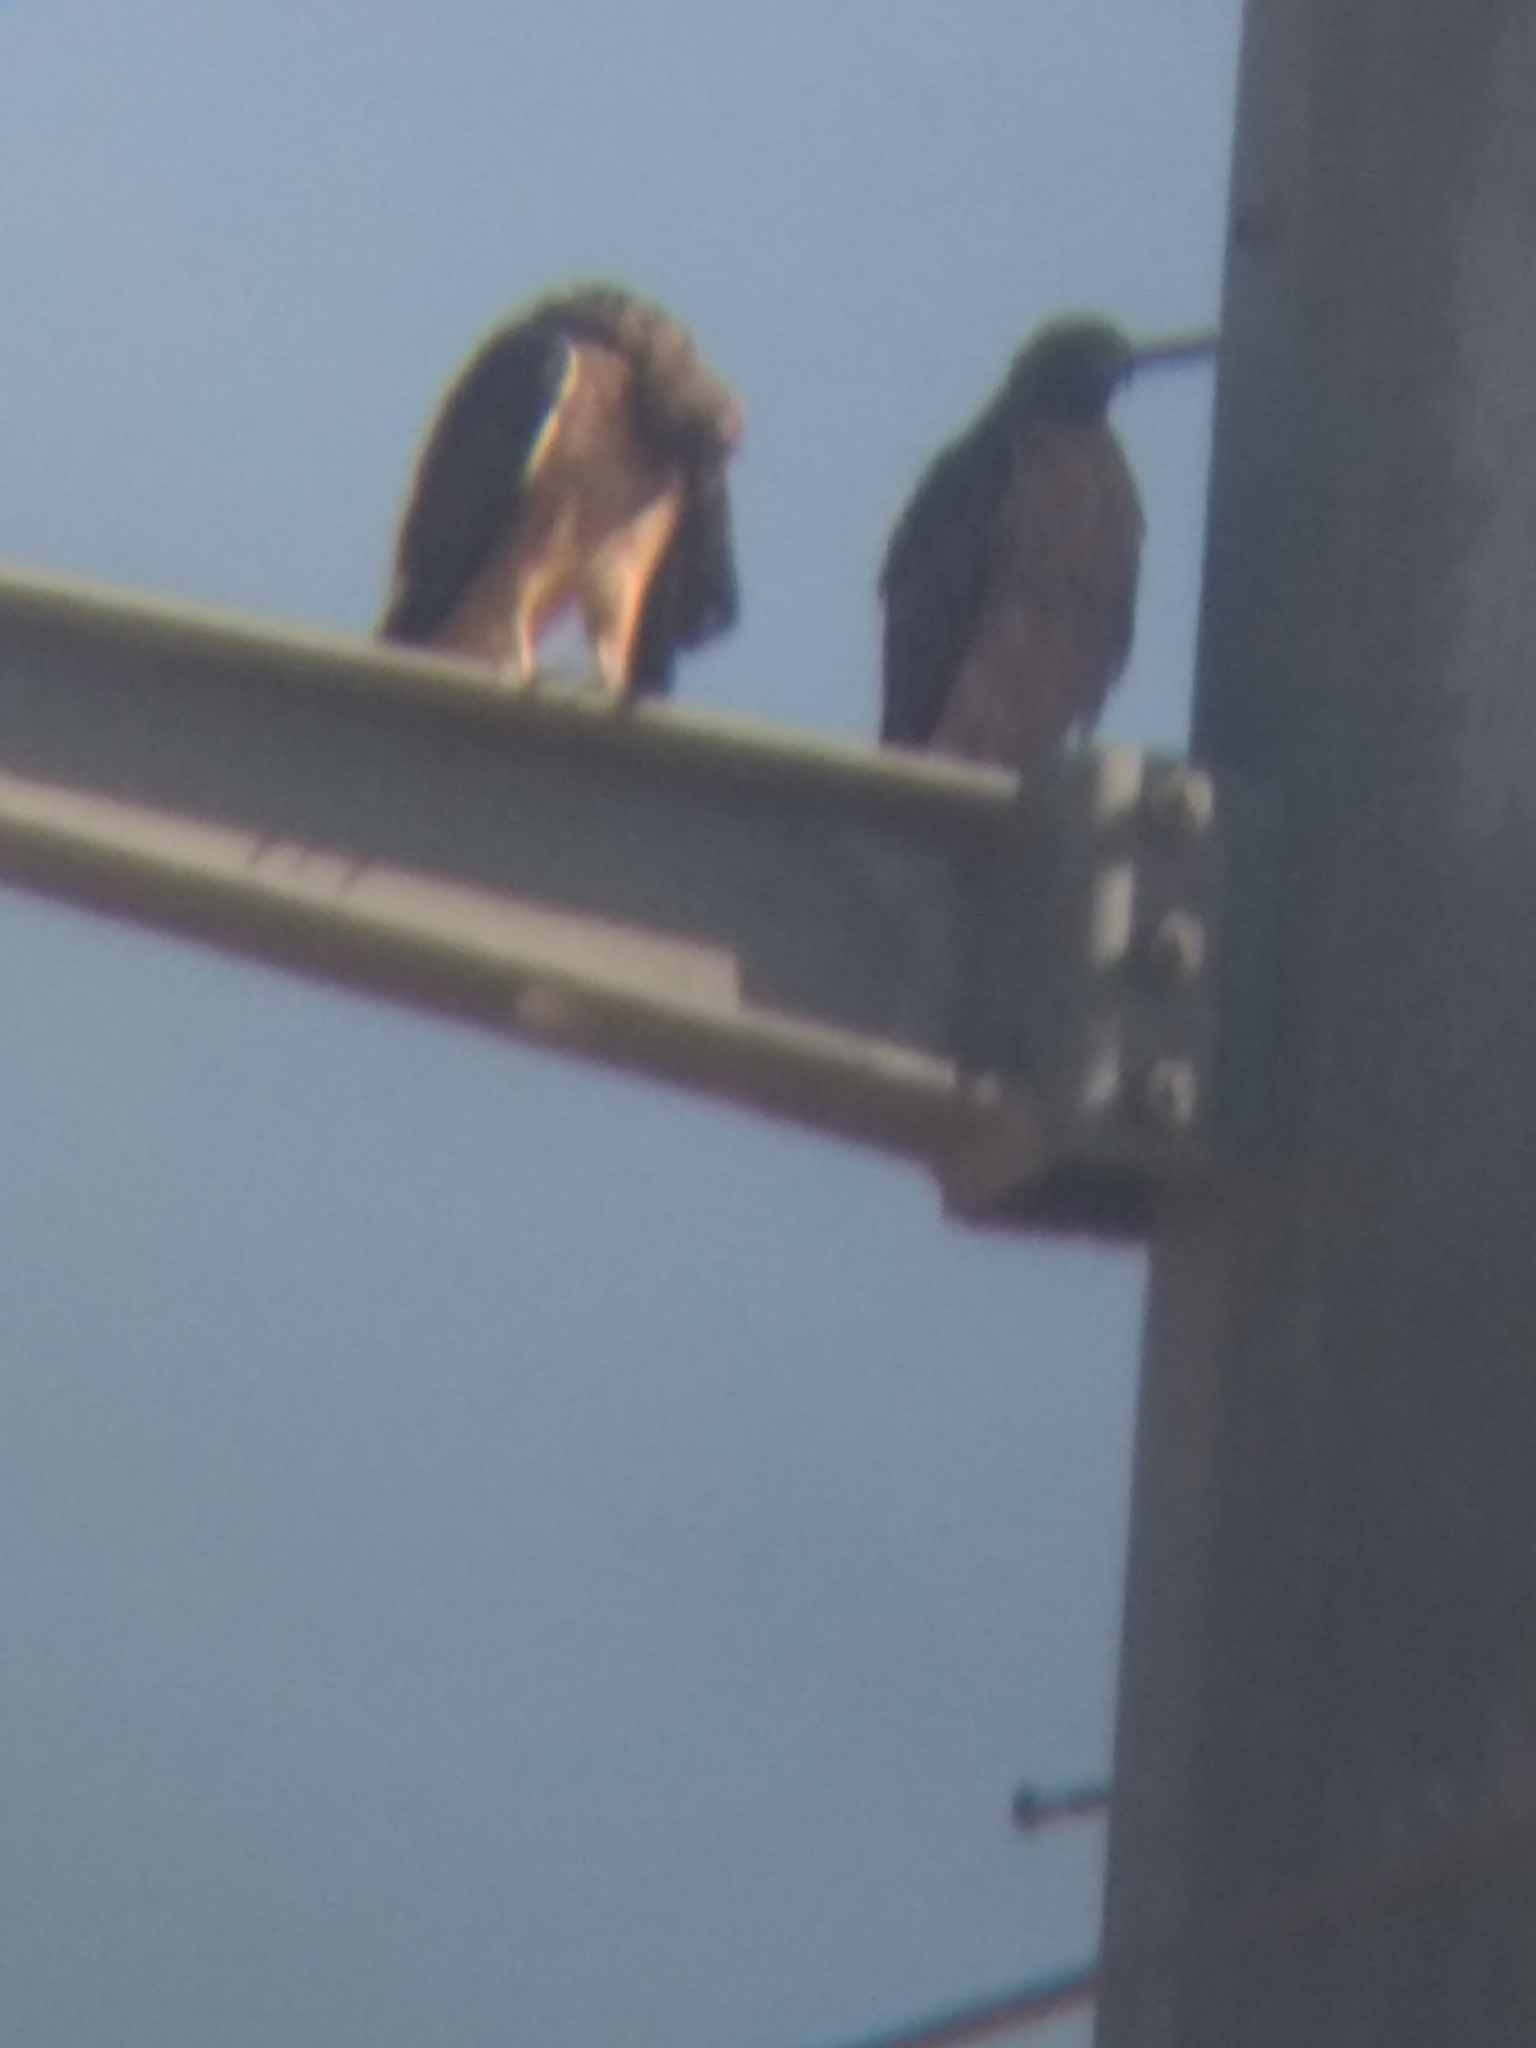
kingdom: Animalia
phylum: Chordata
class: Aves
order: Accipitriformes
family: Accipitridae
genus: Buteo
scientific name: Buteo jamaicensis
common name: Red-tailed hawk
